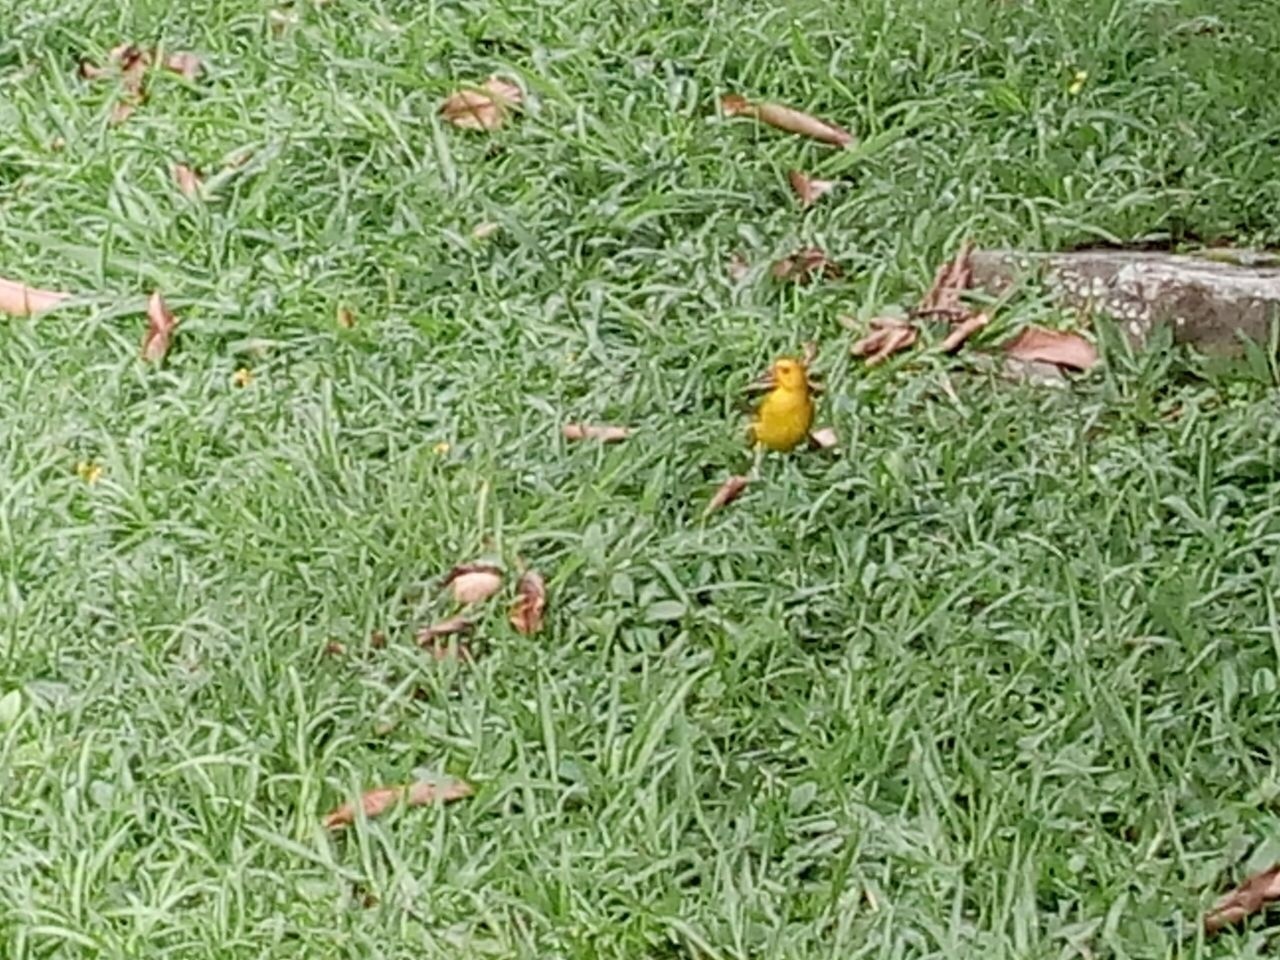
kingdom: Animalia
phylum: Chordata
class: Aves
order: Passeriformes
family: Thraupidae
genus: Sicalis
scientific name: Sicalis flaveola
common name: Saffron finch
